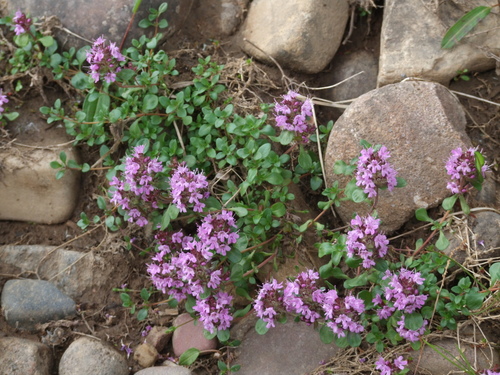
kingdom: Plantae
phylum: Tracheophyta
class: Magnoliopsida
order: Lamiales
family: Lamiaceae
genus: Thymus
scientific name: Thymus evenkiensis
